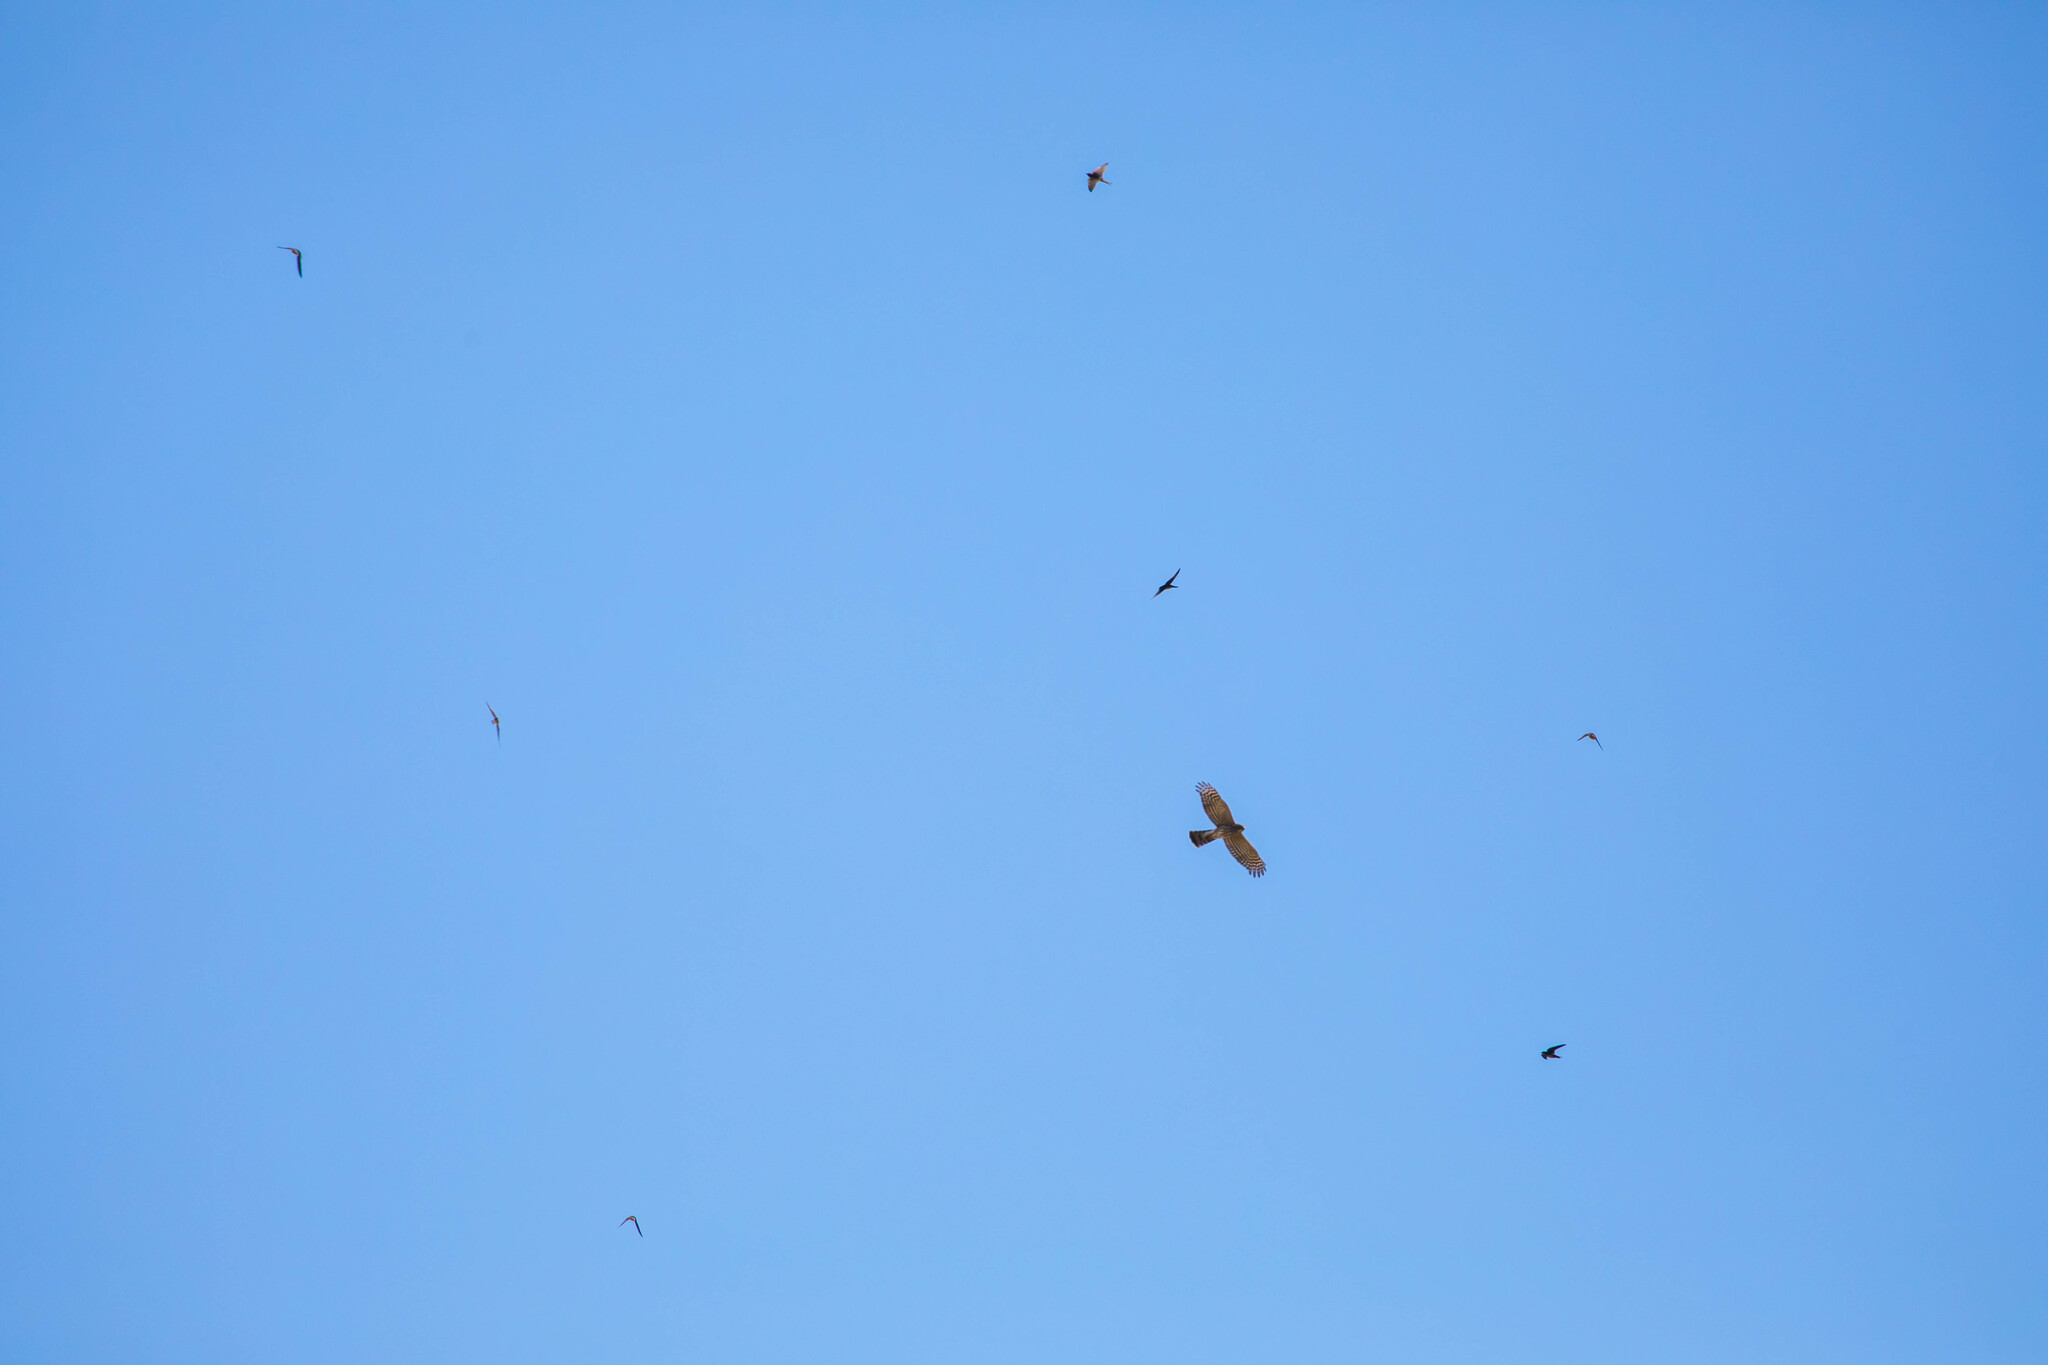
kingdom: Animalia
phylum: Chordata
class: Aves
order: Accipitriformes
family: Accipitridae
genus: Accipiter
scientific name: Accipiter cooperii
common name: Cooper's hawk
